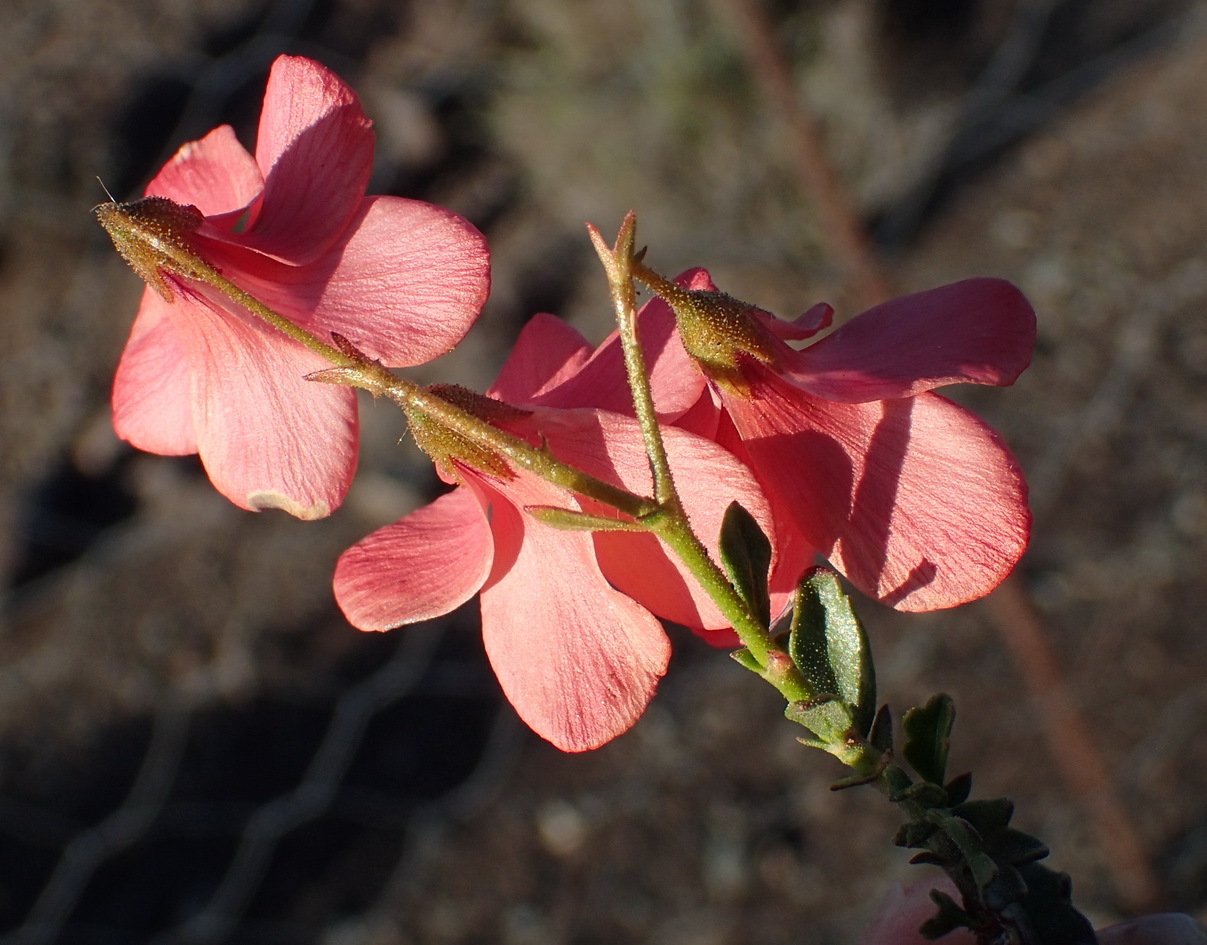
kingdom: Plantae
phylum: Tracheophyta
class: Magnoliopsida
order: Malvales
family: Malvaceae
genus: Hermannia
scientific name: Hermannia grandiflora
